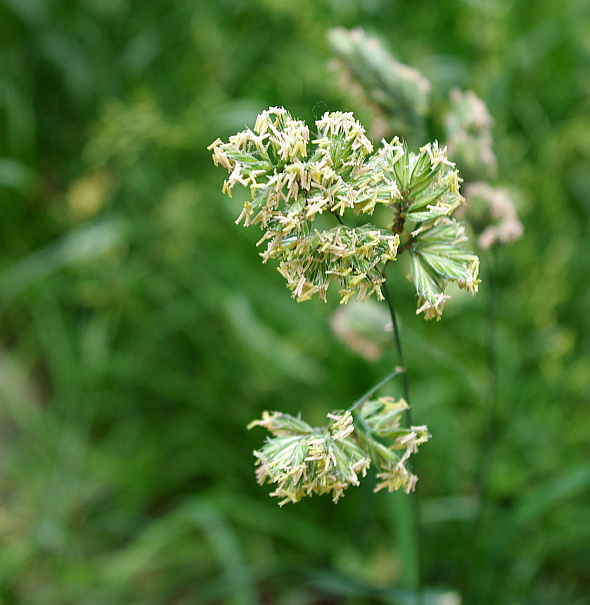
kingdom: Plantae
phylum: Tracheophyta
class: Liliopsida
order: Poales
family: Poaceae
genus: Dactylis
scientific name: Dactylis glomerata
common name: Orchardgrass
